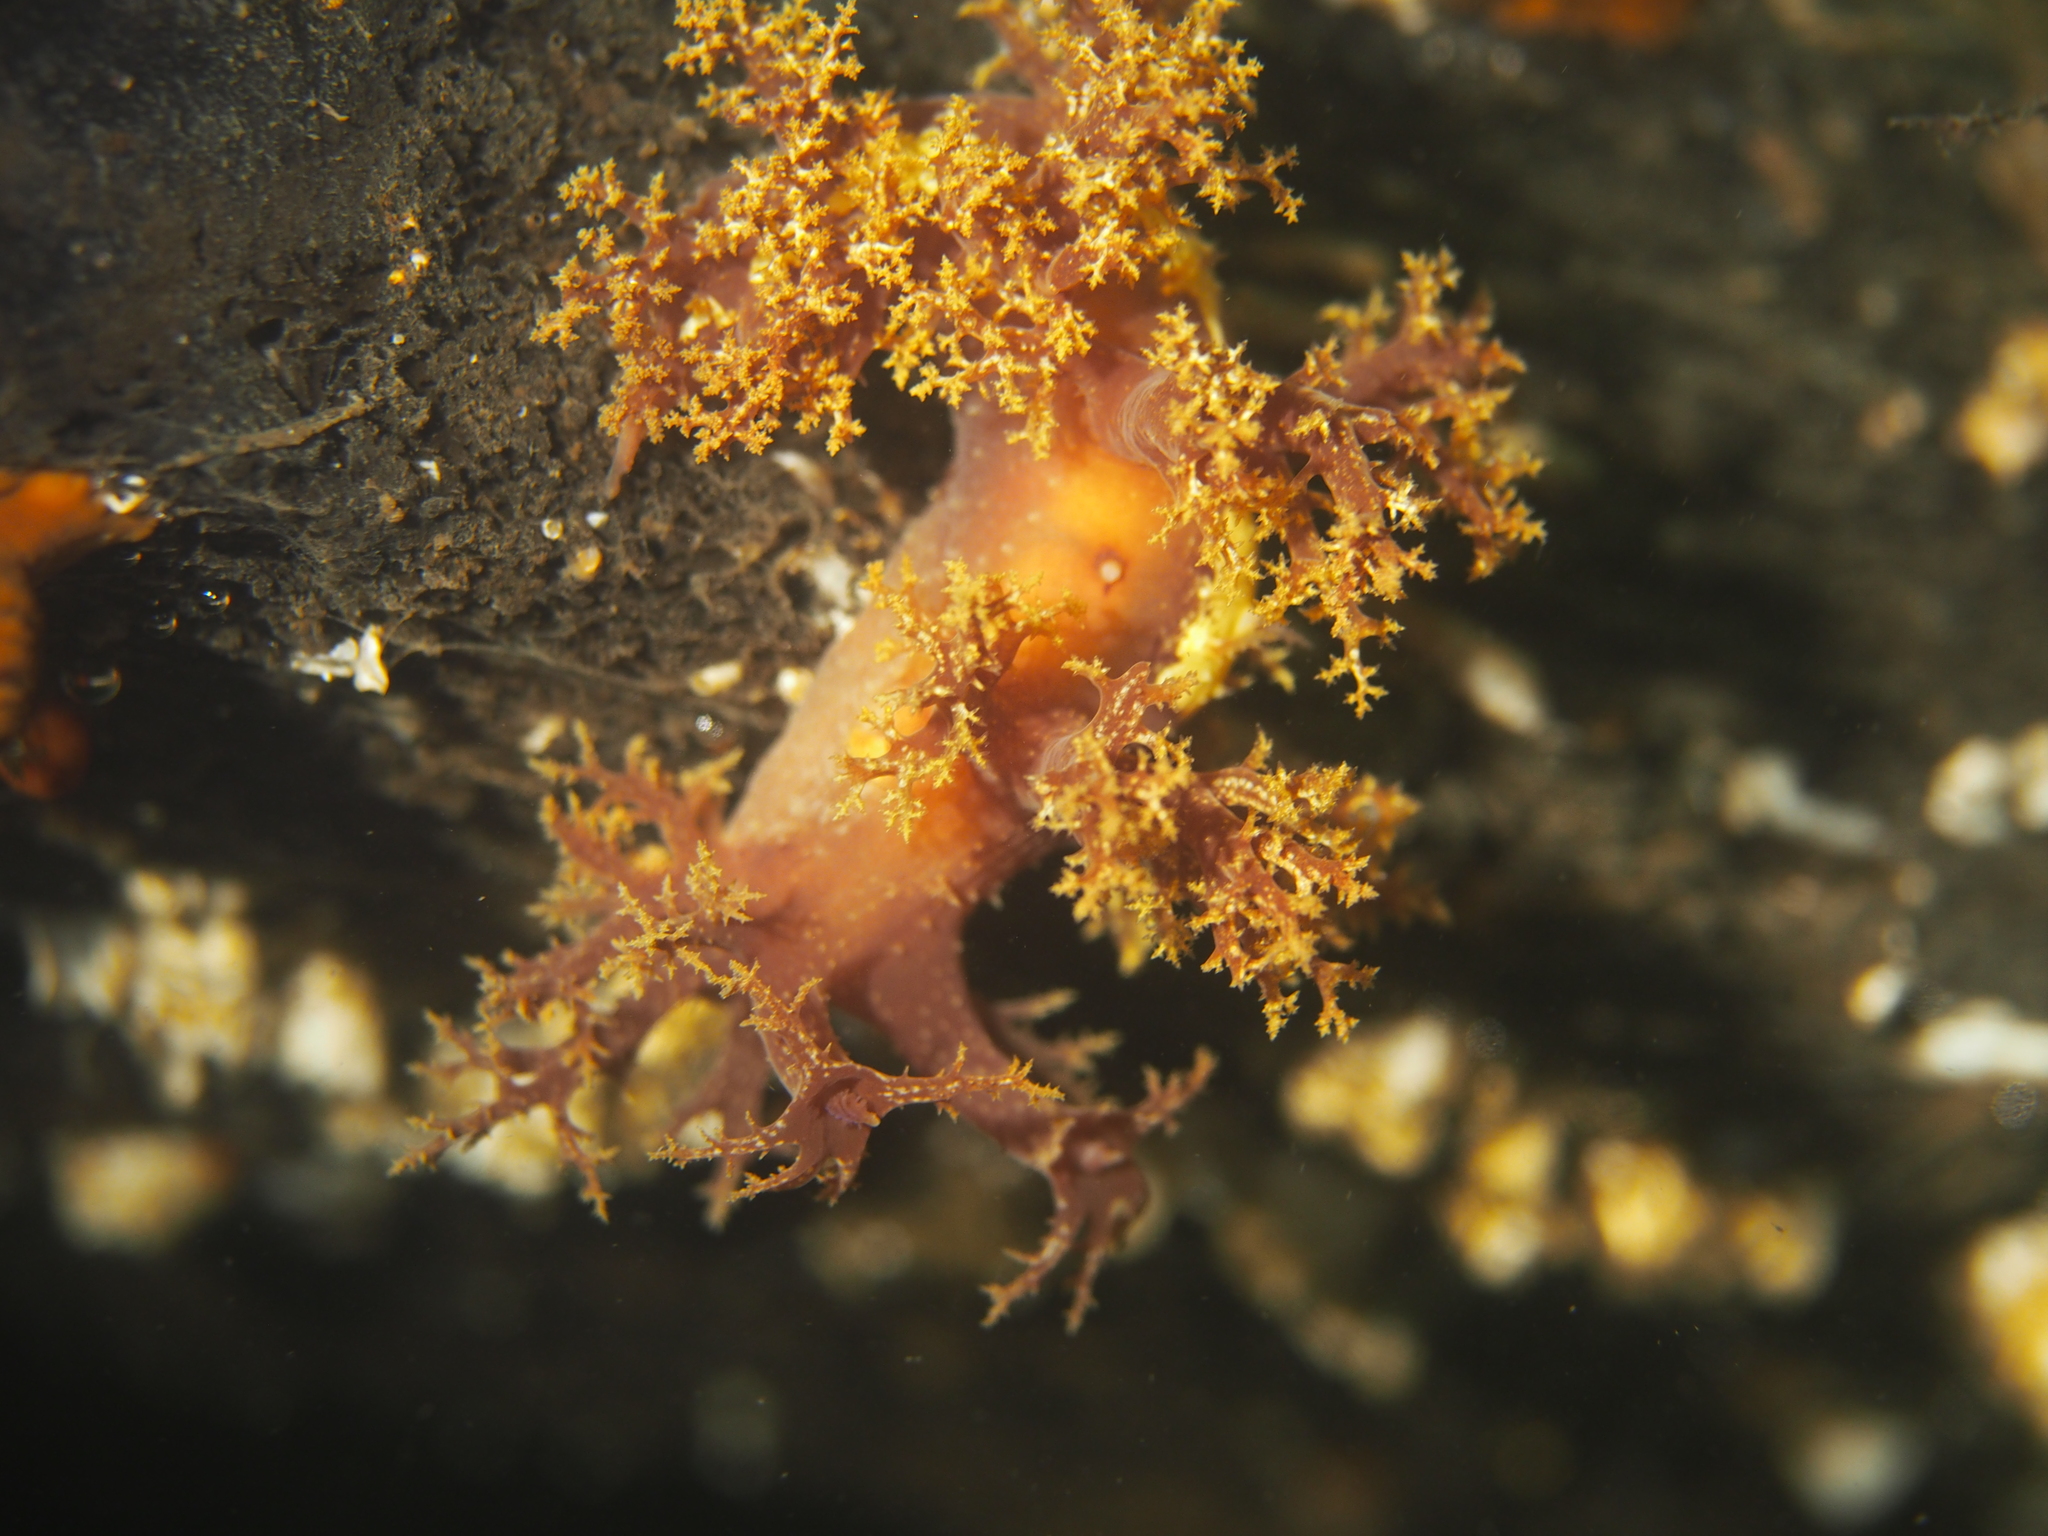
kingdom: Animalia
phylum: Mollusca
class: Gastropoda
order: Nudibranchia
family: Dendronotidae
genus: Dendronotus
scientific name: Dendronotus lacteus
